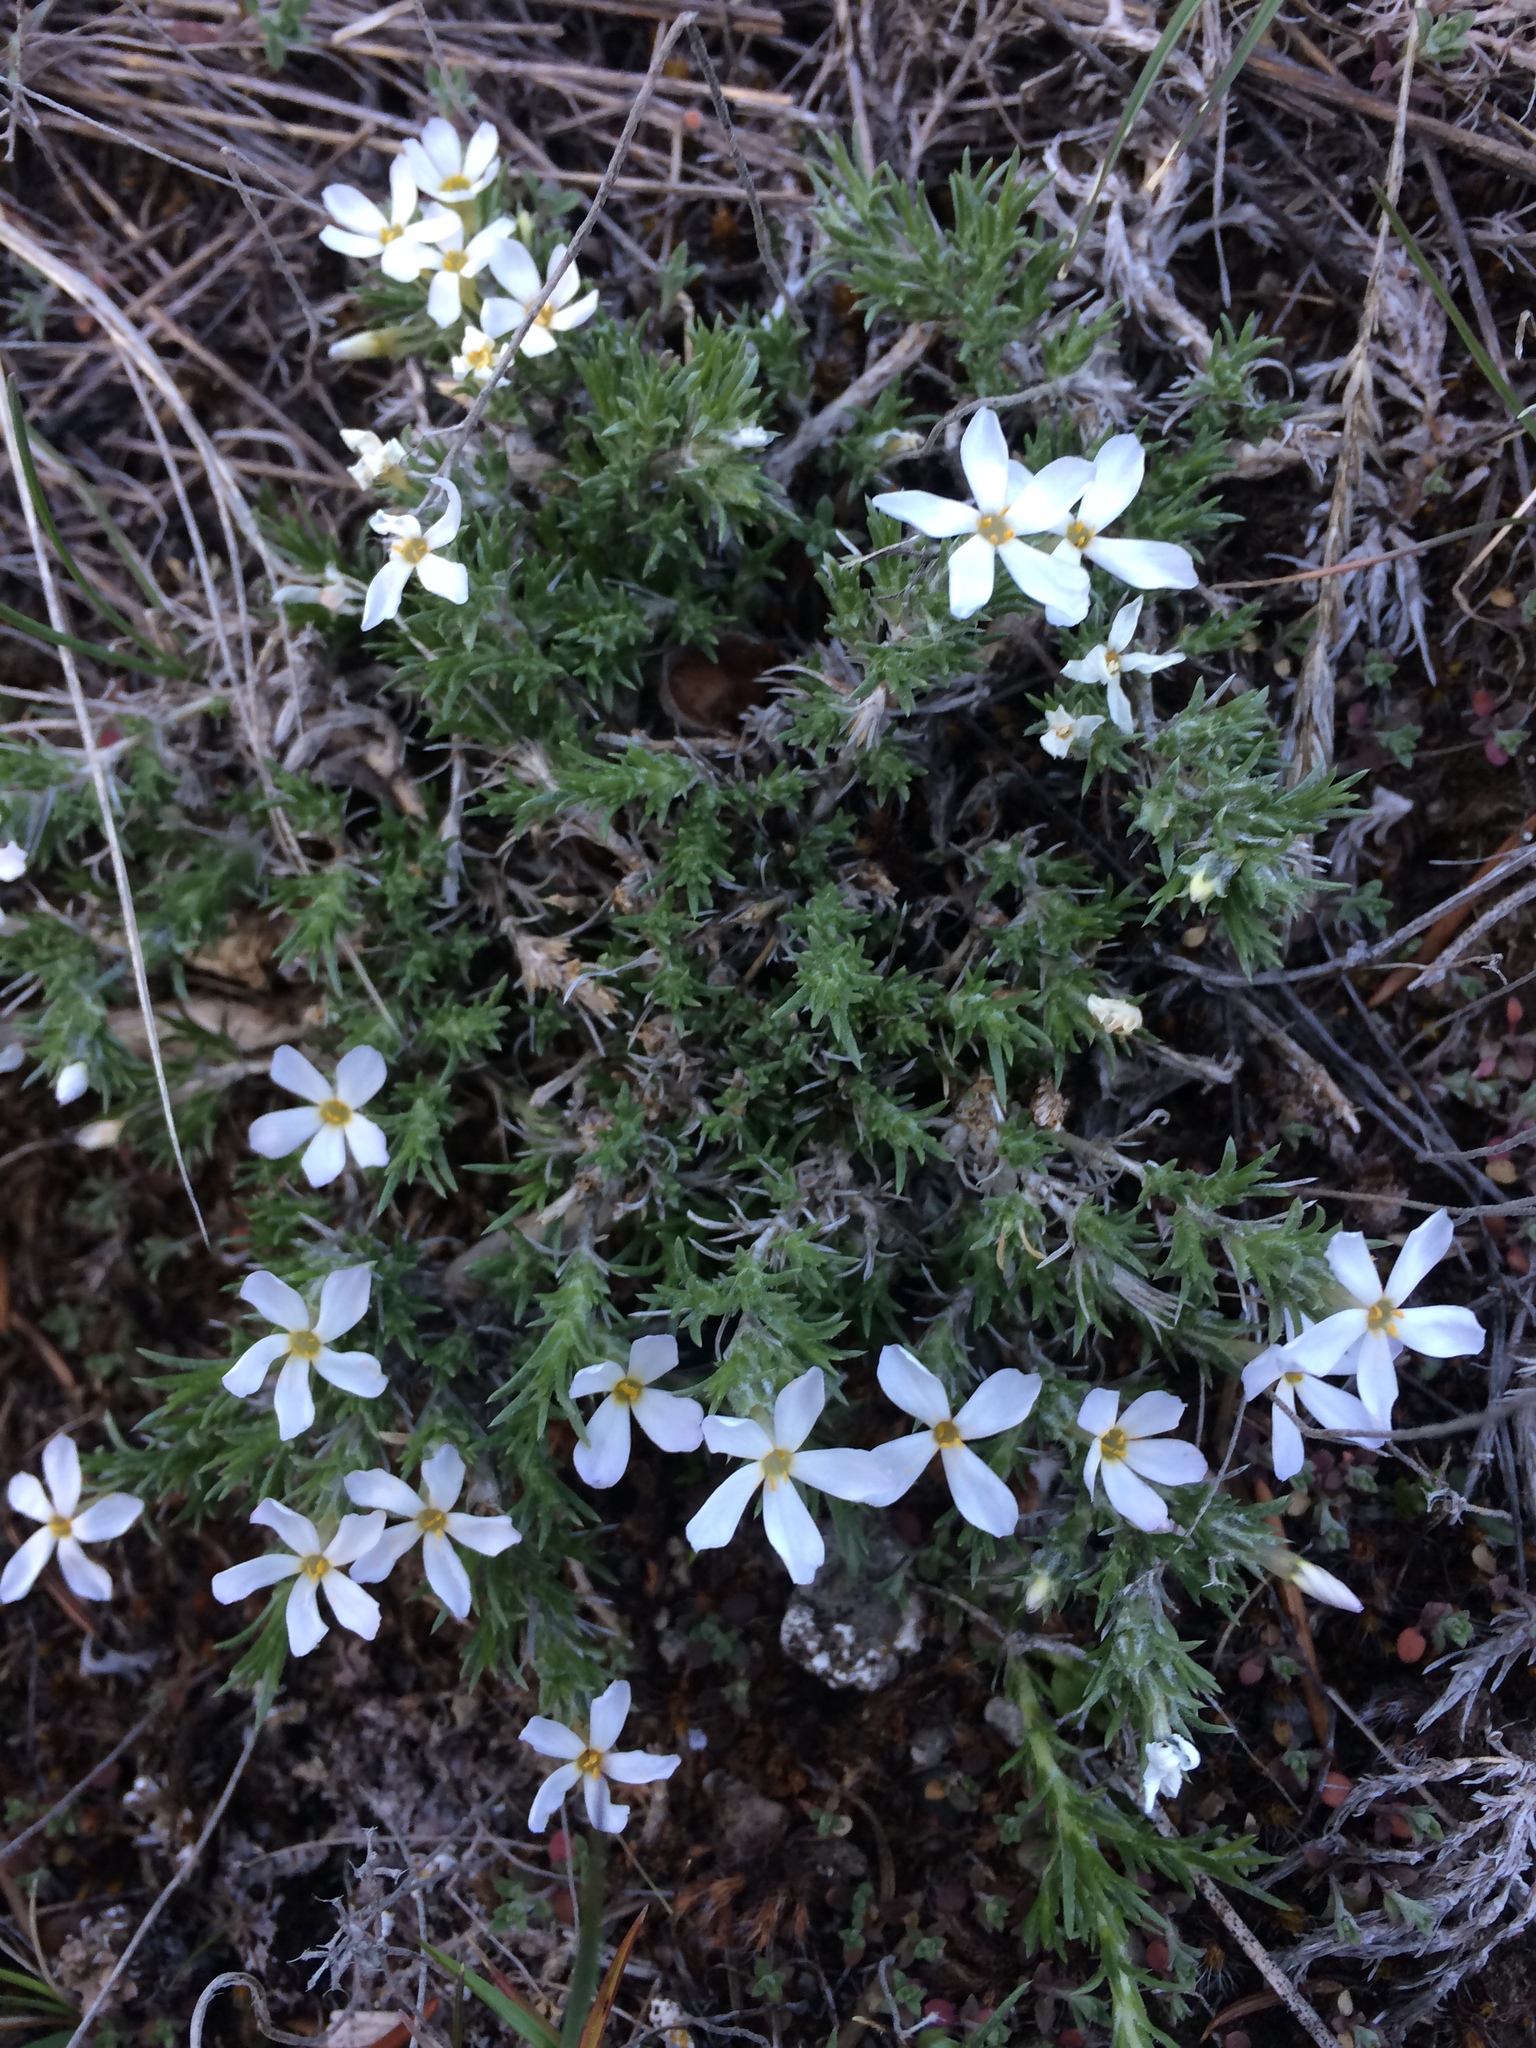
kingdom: Plantae
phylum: Tracheophyta
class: Magnoliopsida
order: Ericales
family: Polemoniaceae
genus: Phlox
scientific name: Phlox hoodii
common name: Moss phlox
